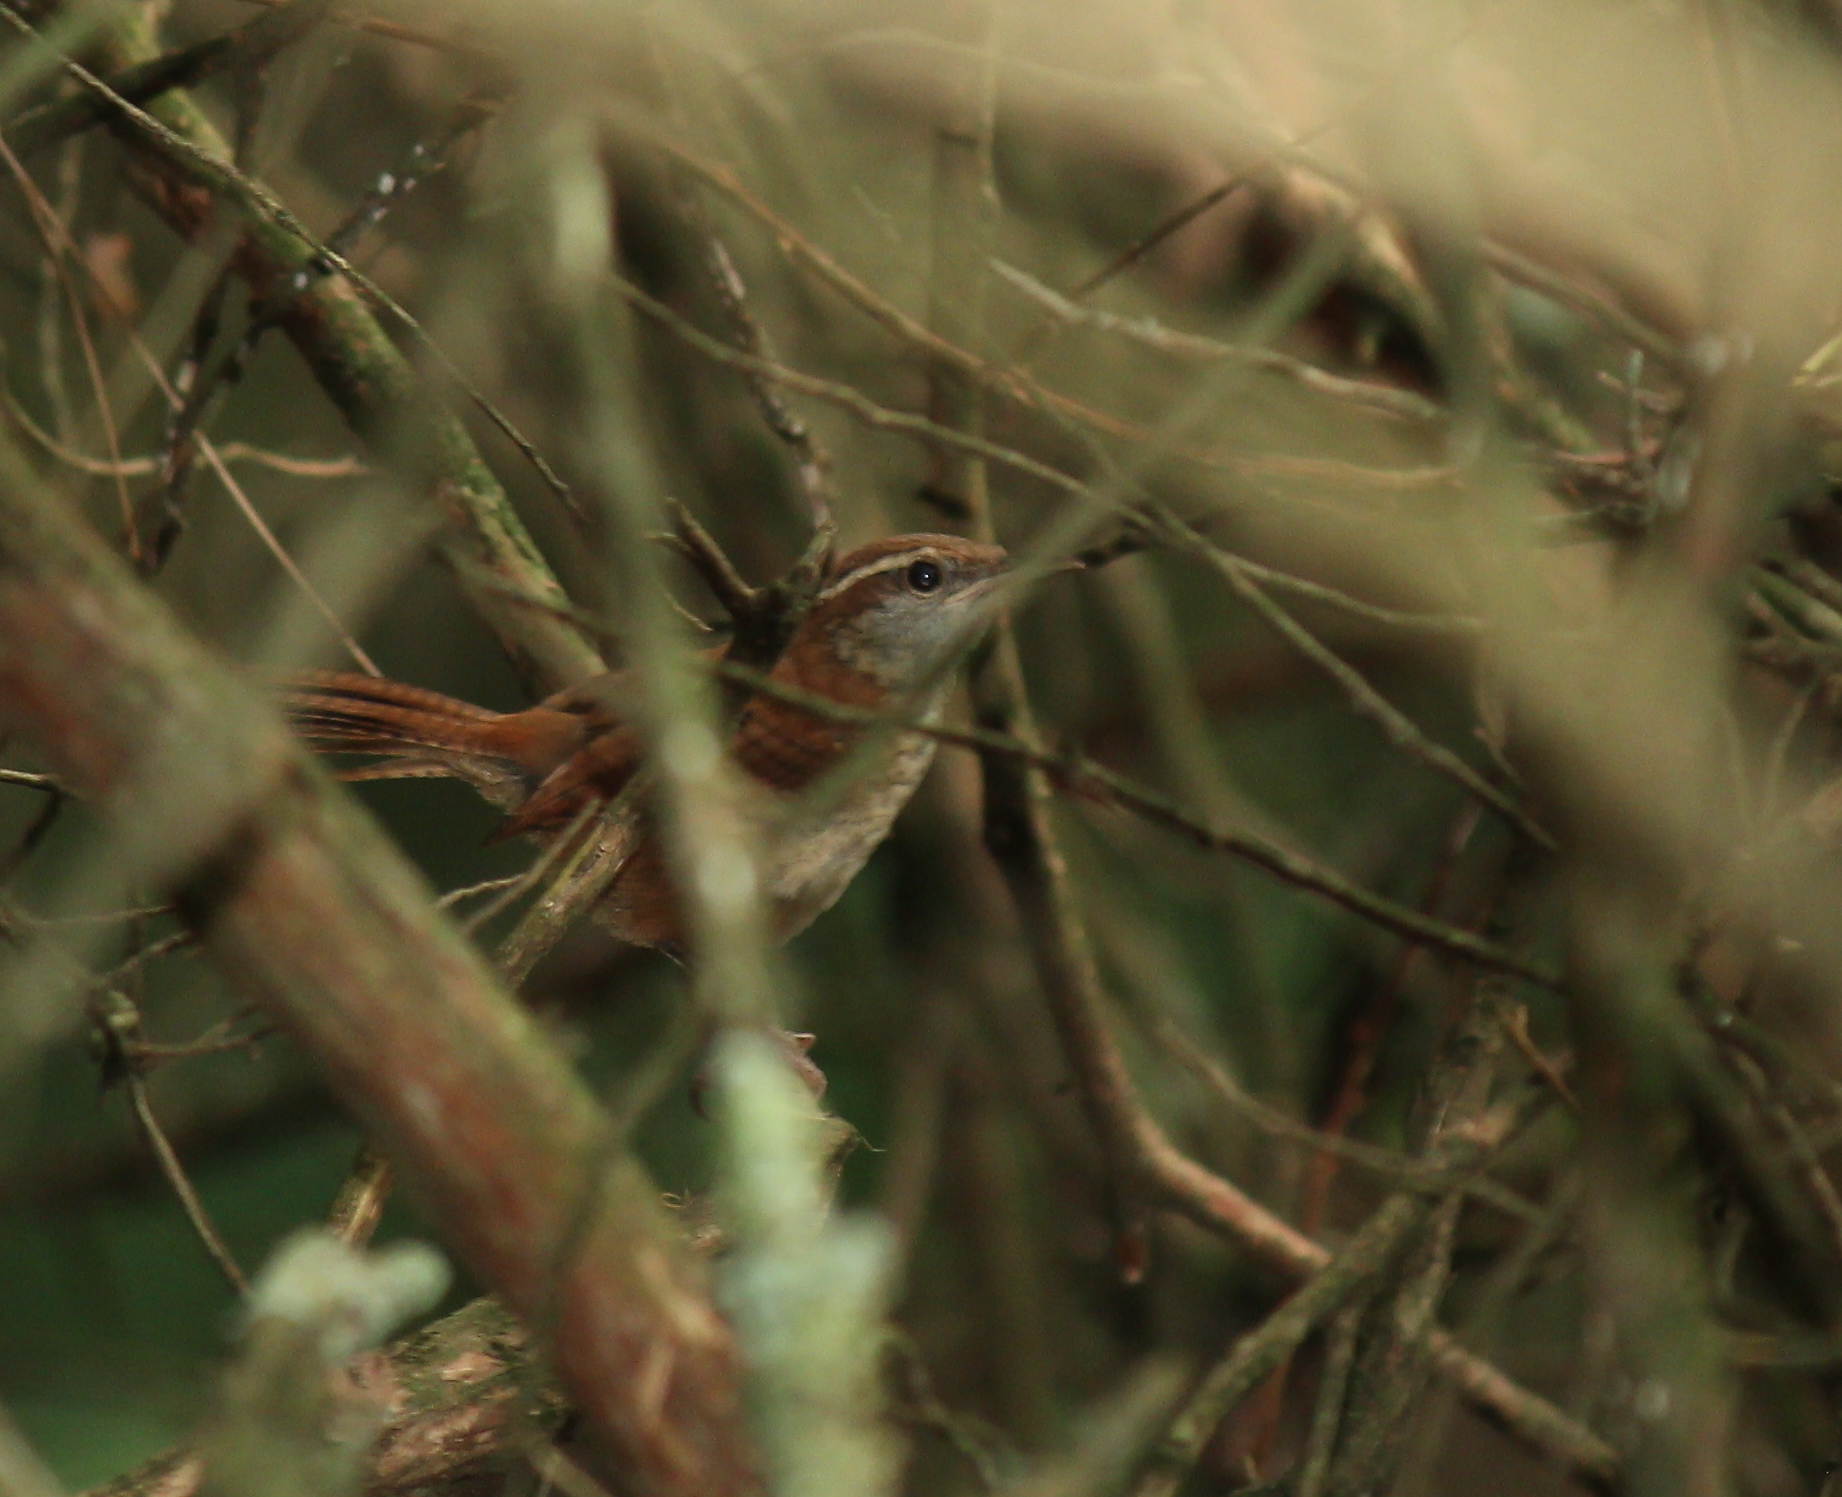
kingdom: Animalia
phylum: Chordata
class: Aves
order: Passeriformes
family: Troglodytidae
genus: Thryothorus
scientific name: Thryothorus ludovicianus
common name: Carolina wren
